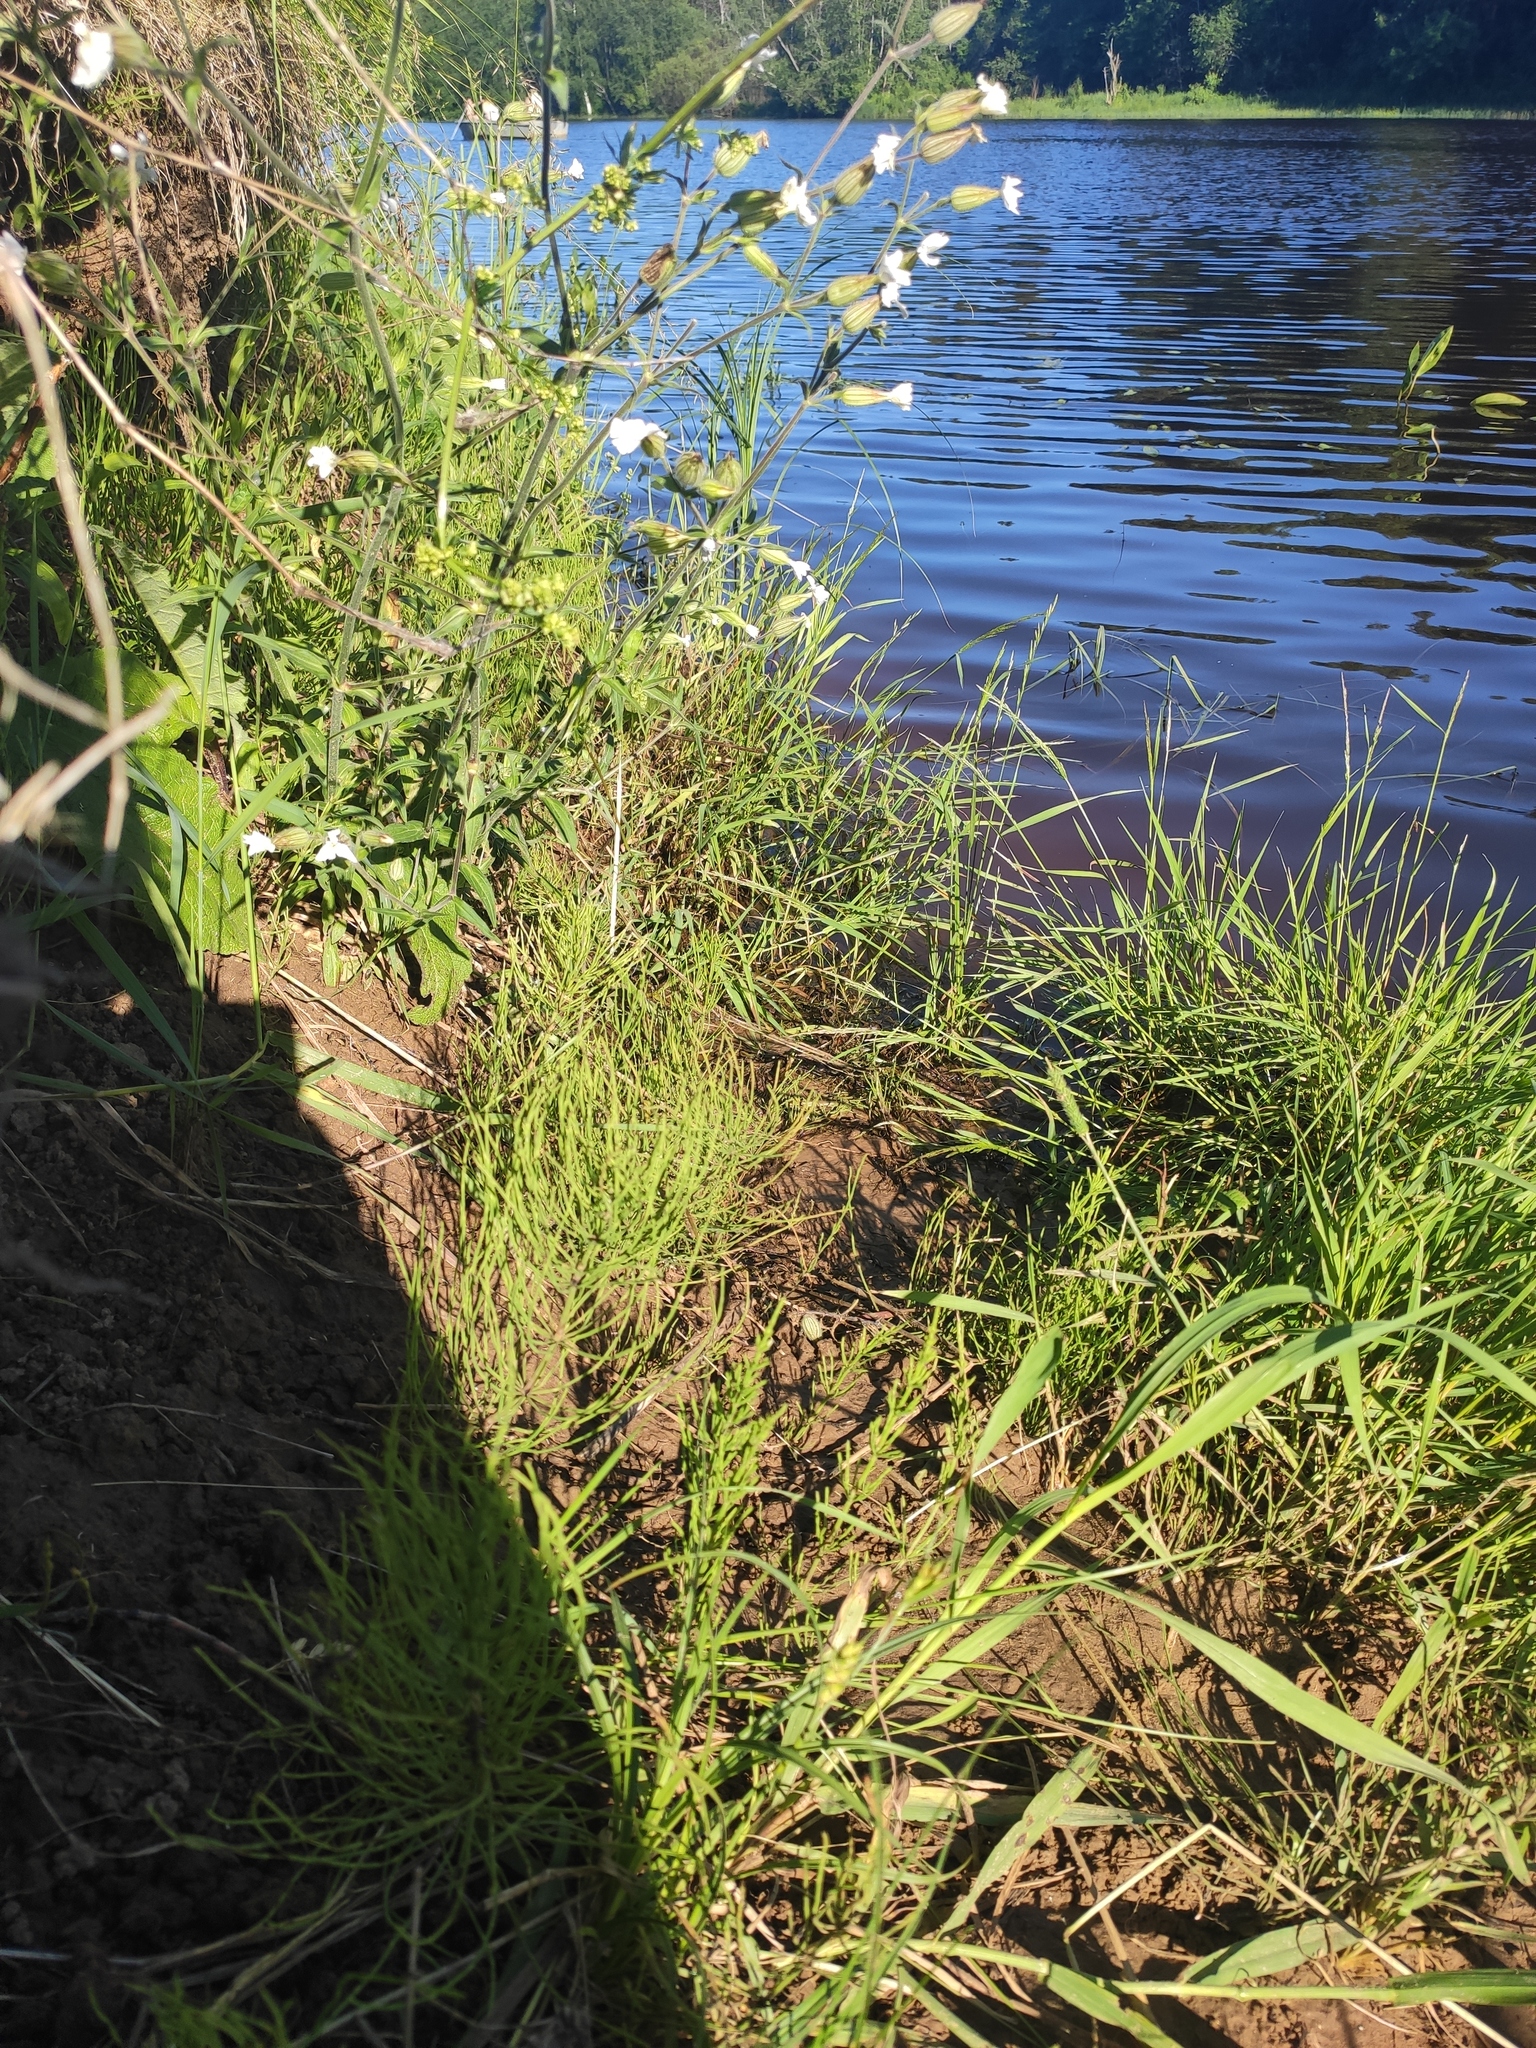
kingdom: Plantae
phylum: Tracheophyta
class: Polypodiopsida
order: Equisetales
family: Equisetaceae
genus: Equisetum
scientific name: Equisetum arvense
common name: Field horsetail
